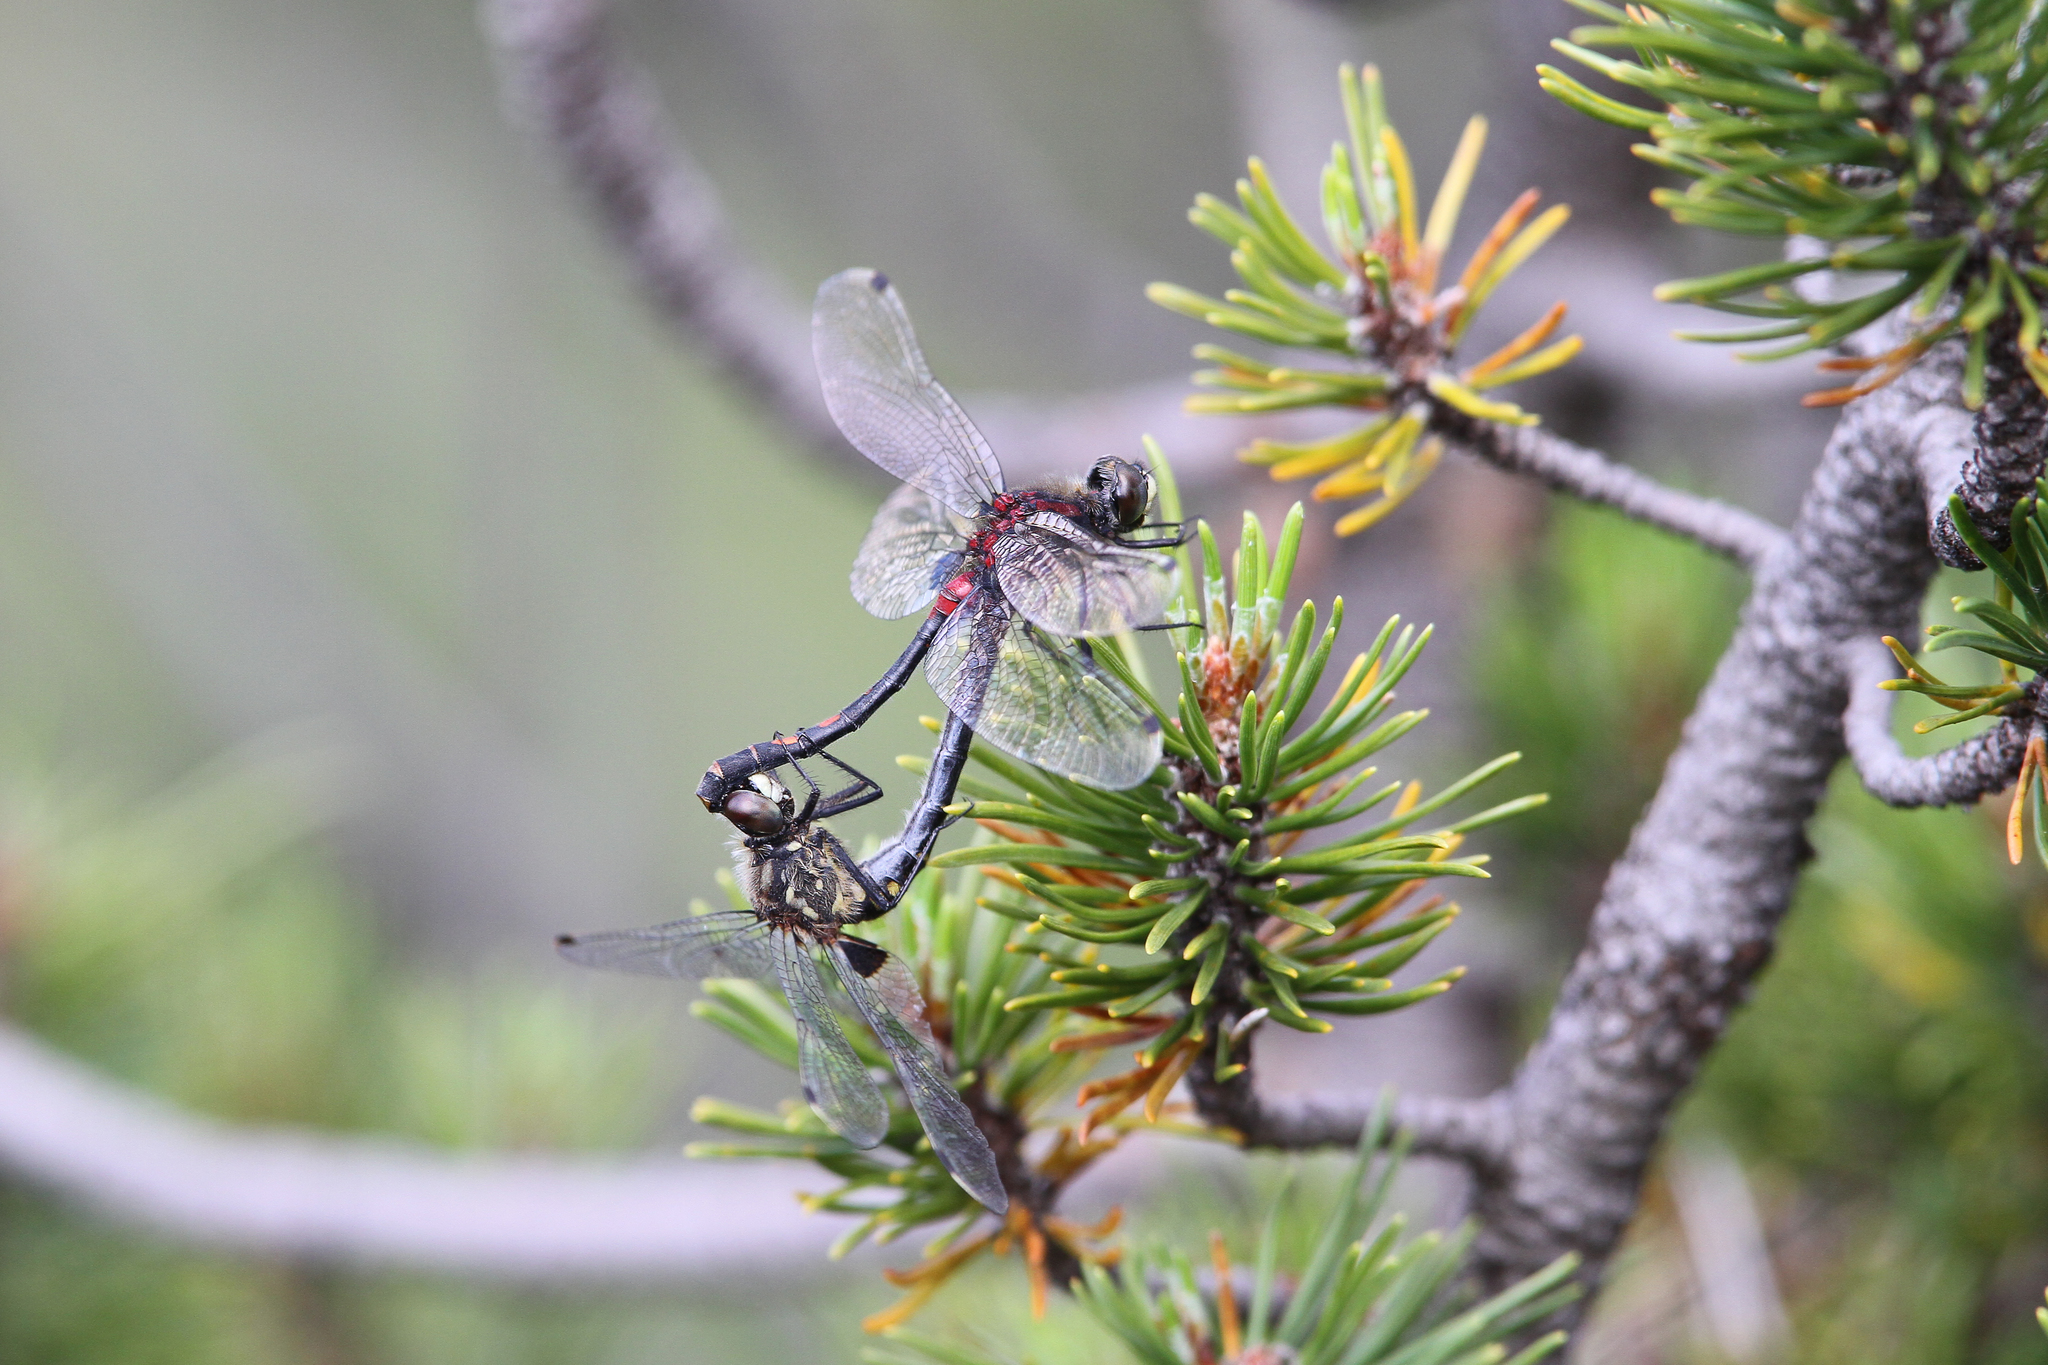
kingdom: Animalia
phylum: Arthropoda
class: Insecta
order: Odonata
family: Libellulidae
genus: Leucorrhinia
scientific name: Leucorrhinia dubia
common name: White-faced darter
